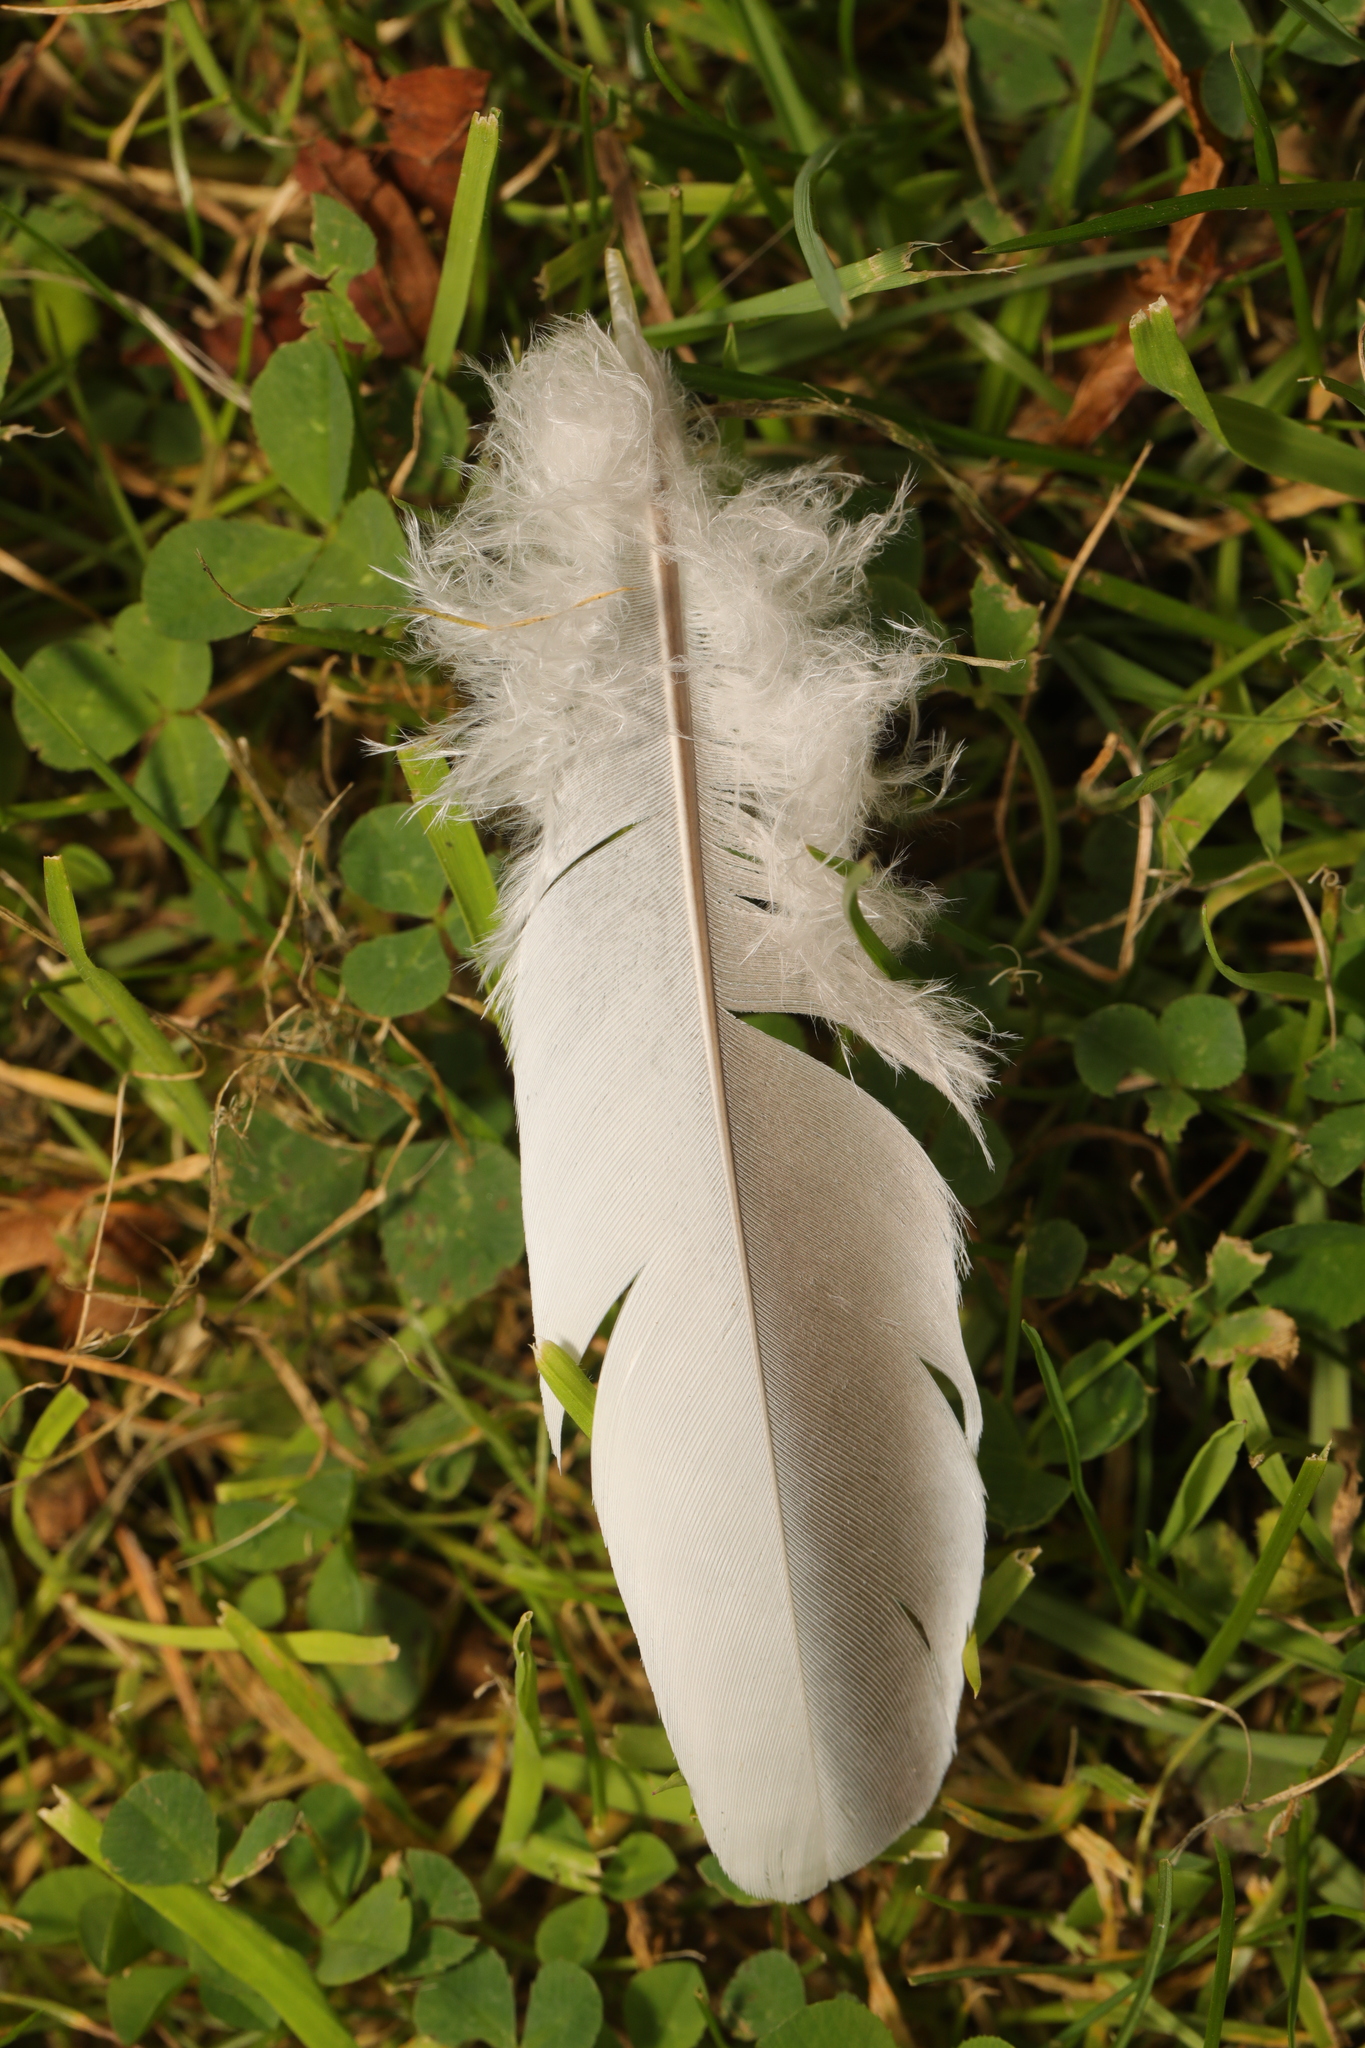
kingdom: Animalia
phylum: Chordata
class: Aves
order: Columbiformes
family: Columbidae
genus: Columba
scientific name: Columba palumbus
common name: Common wood pigeon
